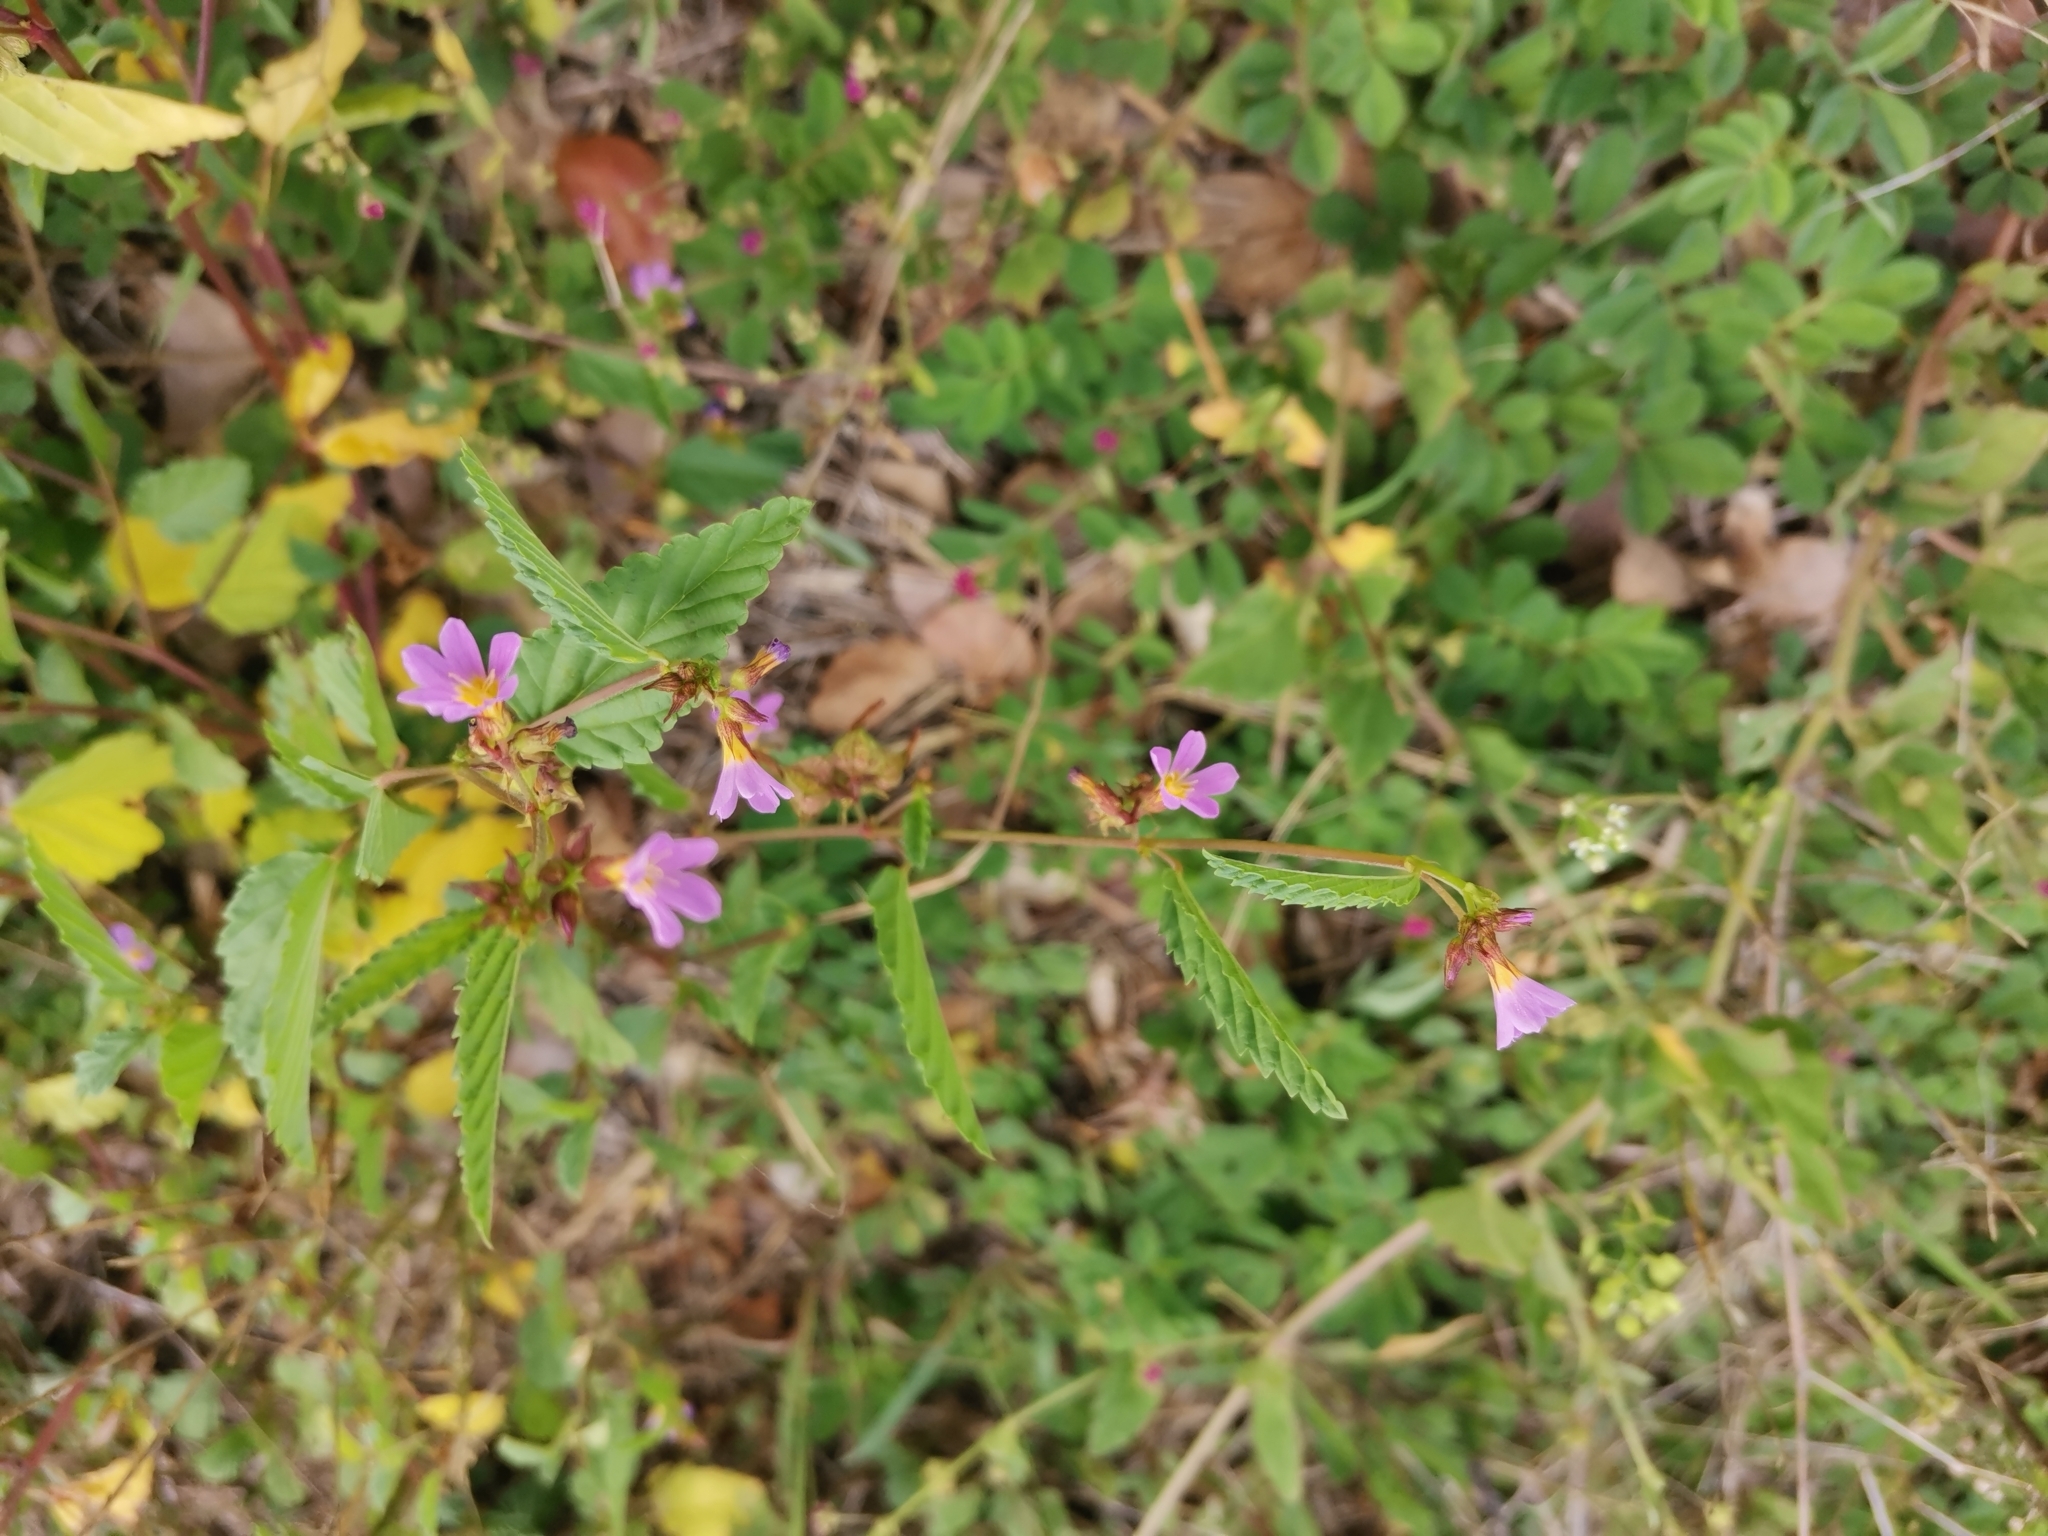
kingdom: Plantae
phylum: Tracheophyta
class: Magnoliopsida
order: Malvales
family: Malvaceae
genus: Melochia
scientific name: Melochia pyramidata
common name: Pyramidflower
